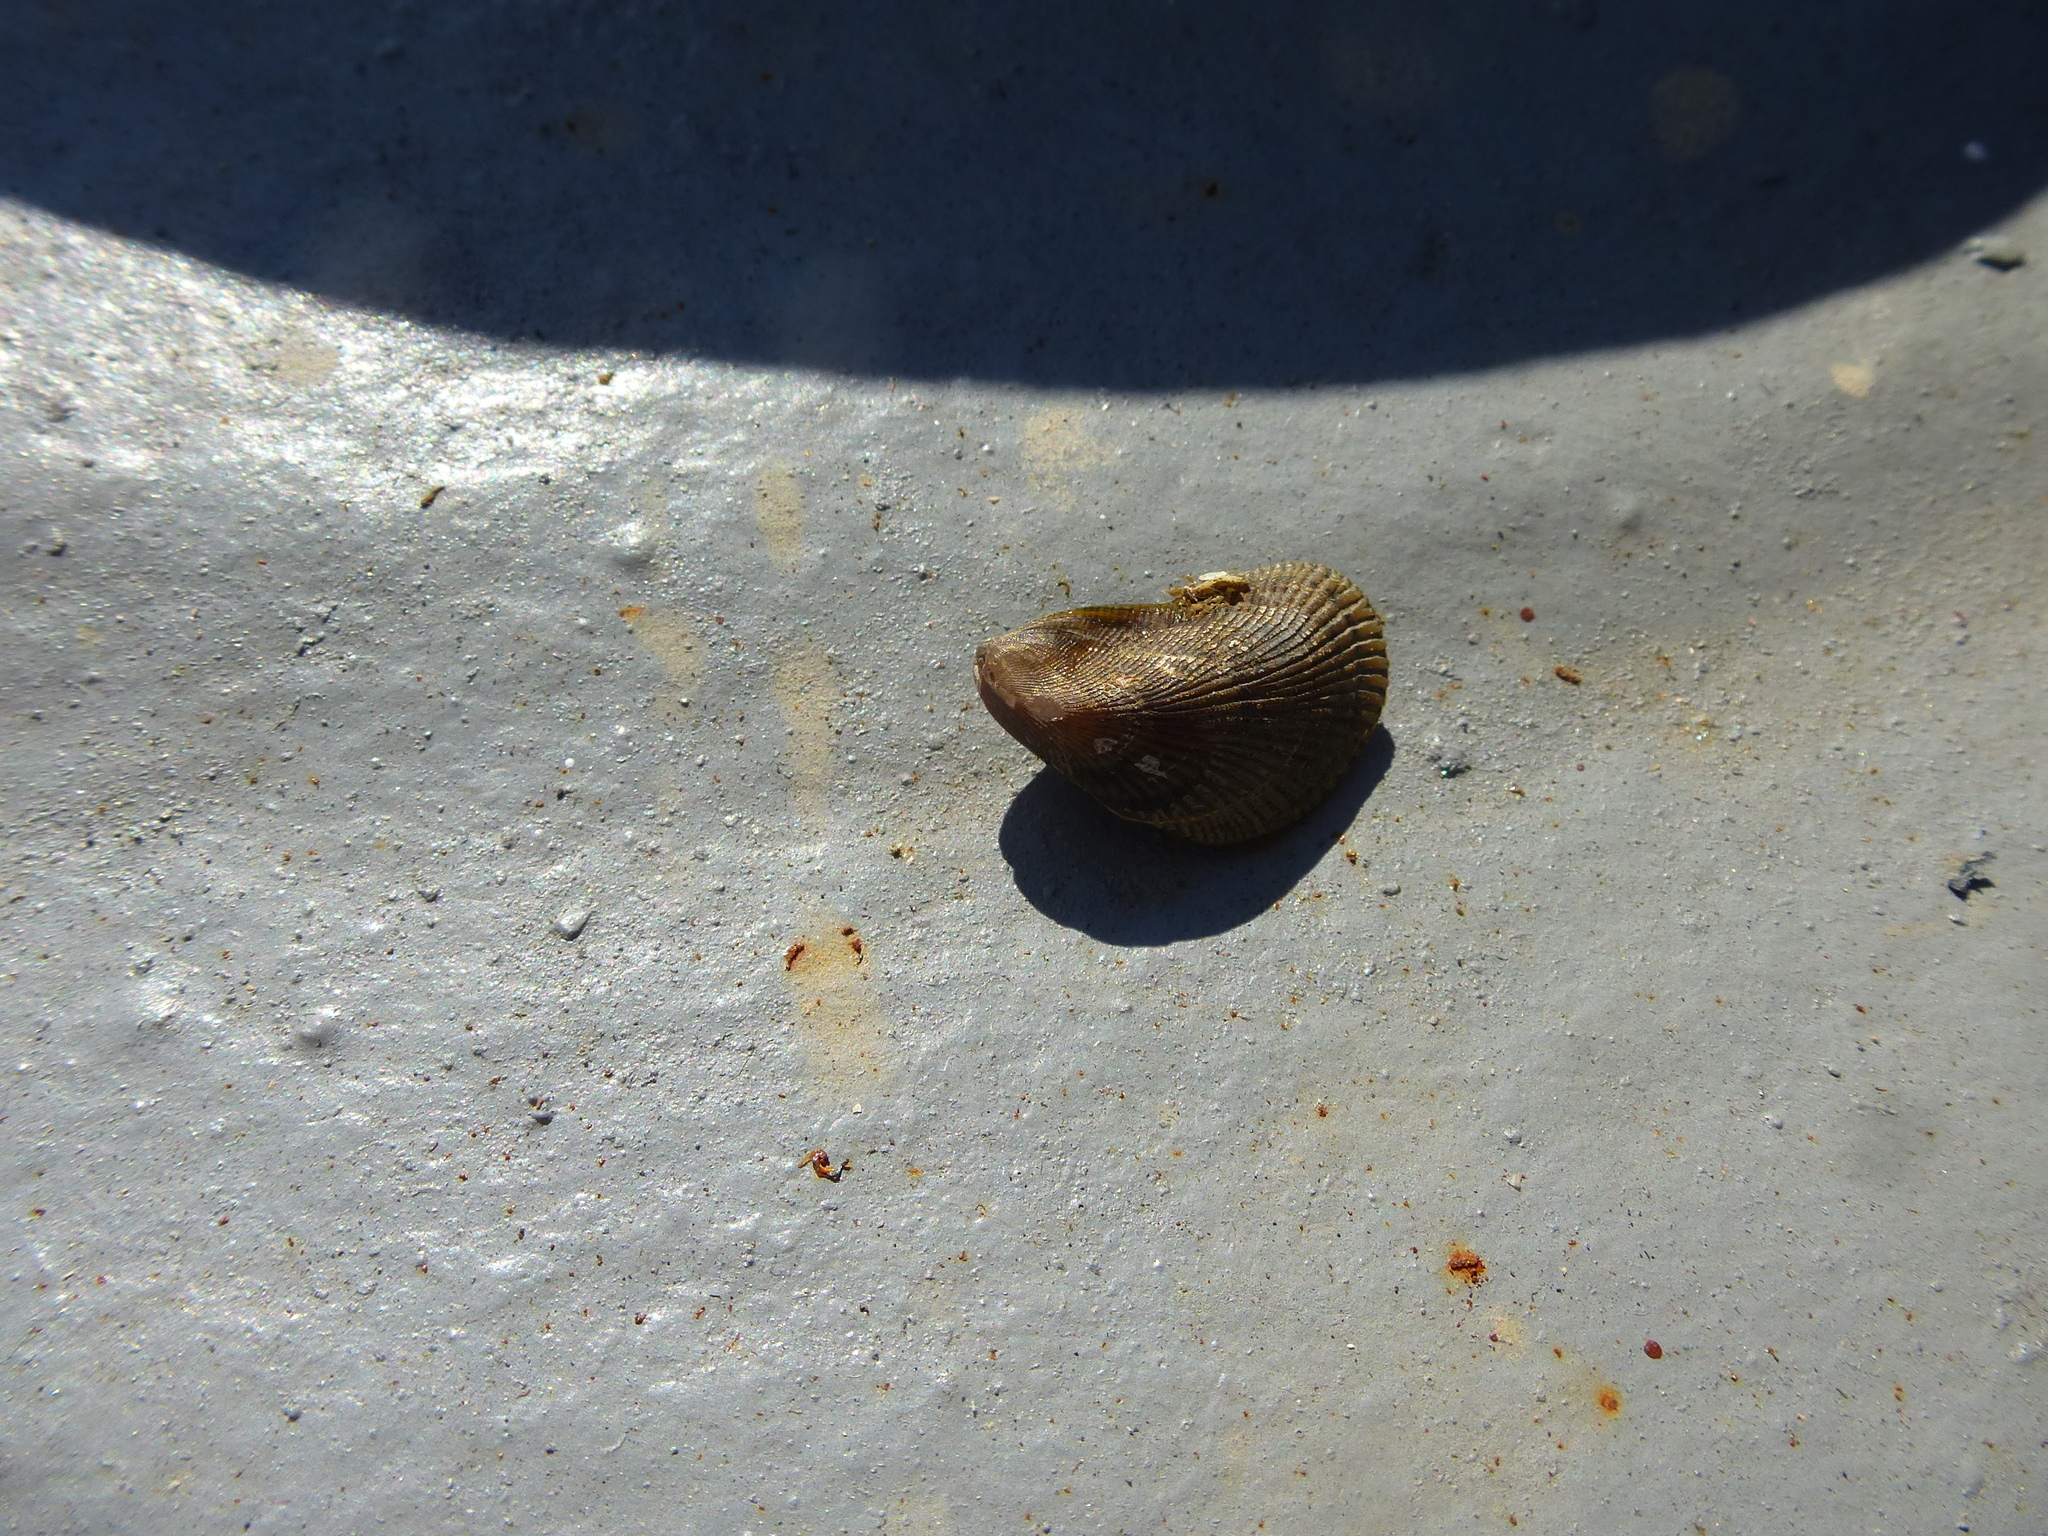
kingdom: Animalia
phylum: Mollusca
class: Bivalvia
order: Mytilida
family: Mytilidae
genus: Ischadium
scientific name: Ischadium recurvum
